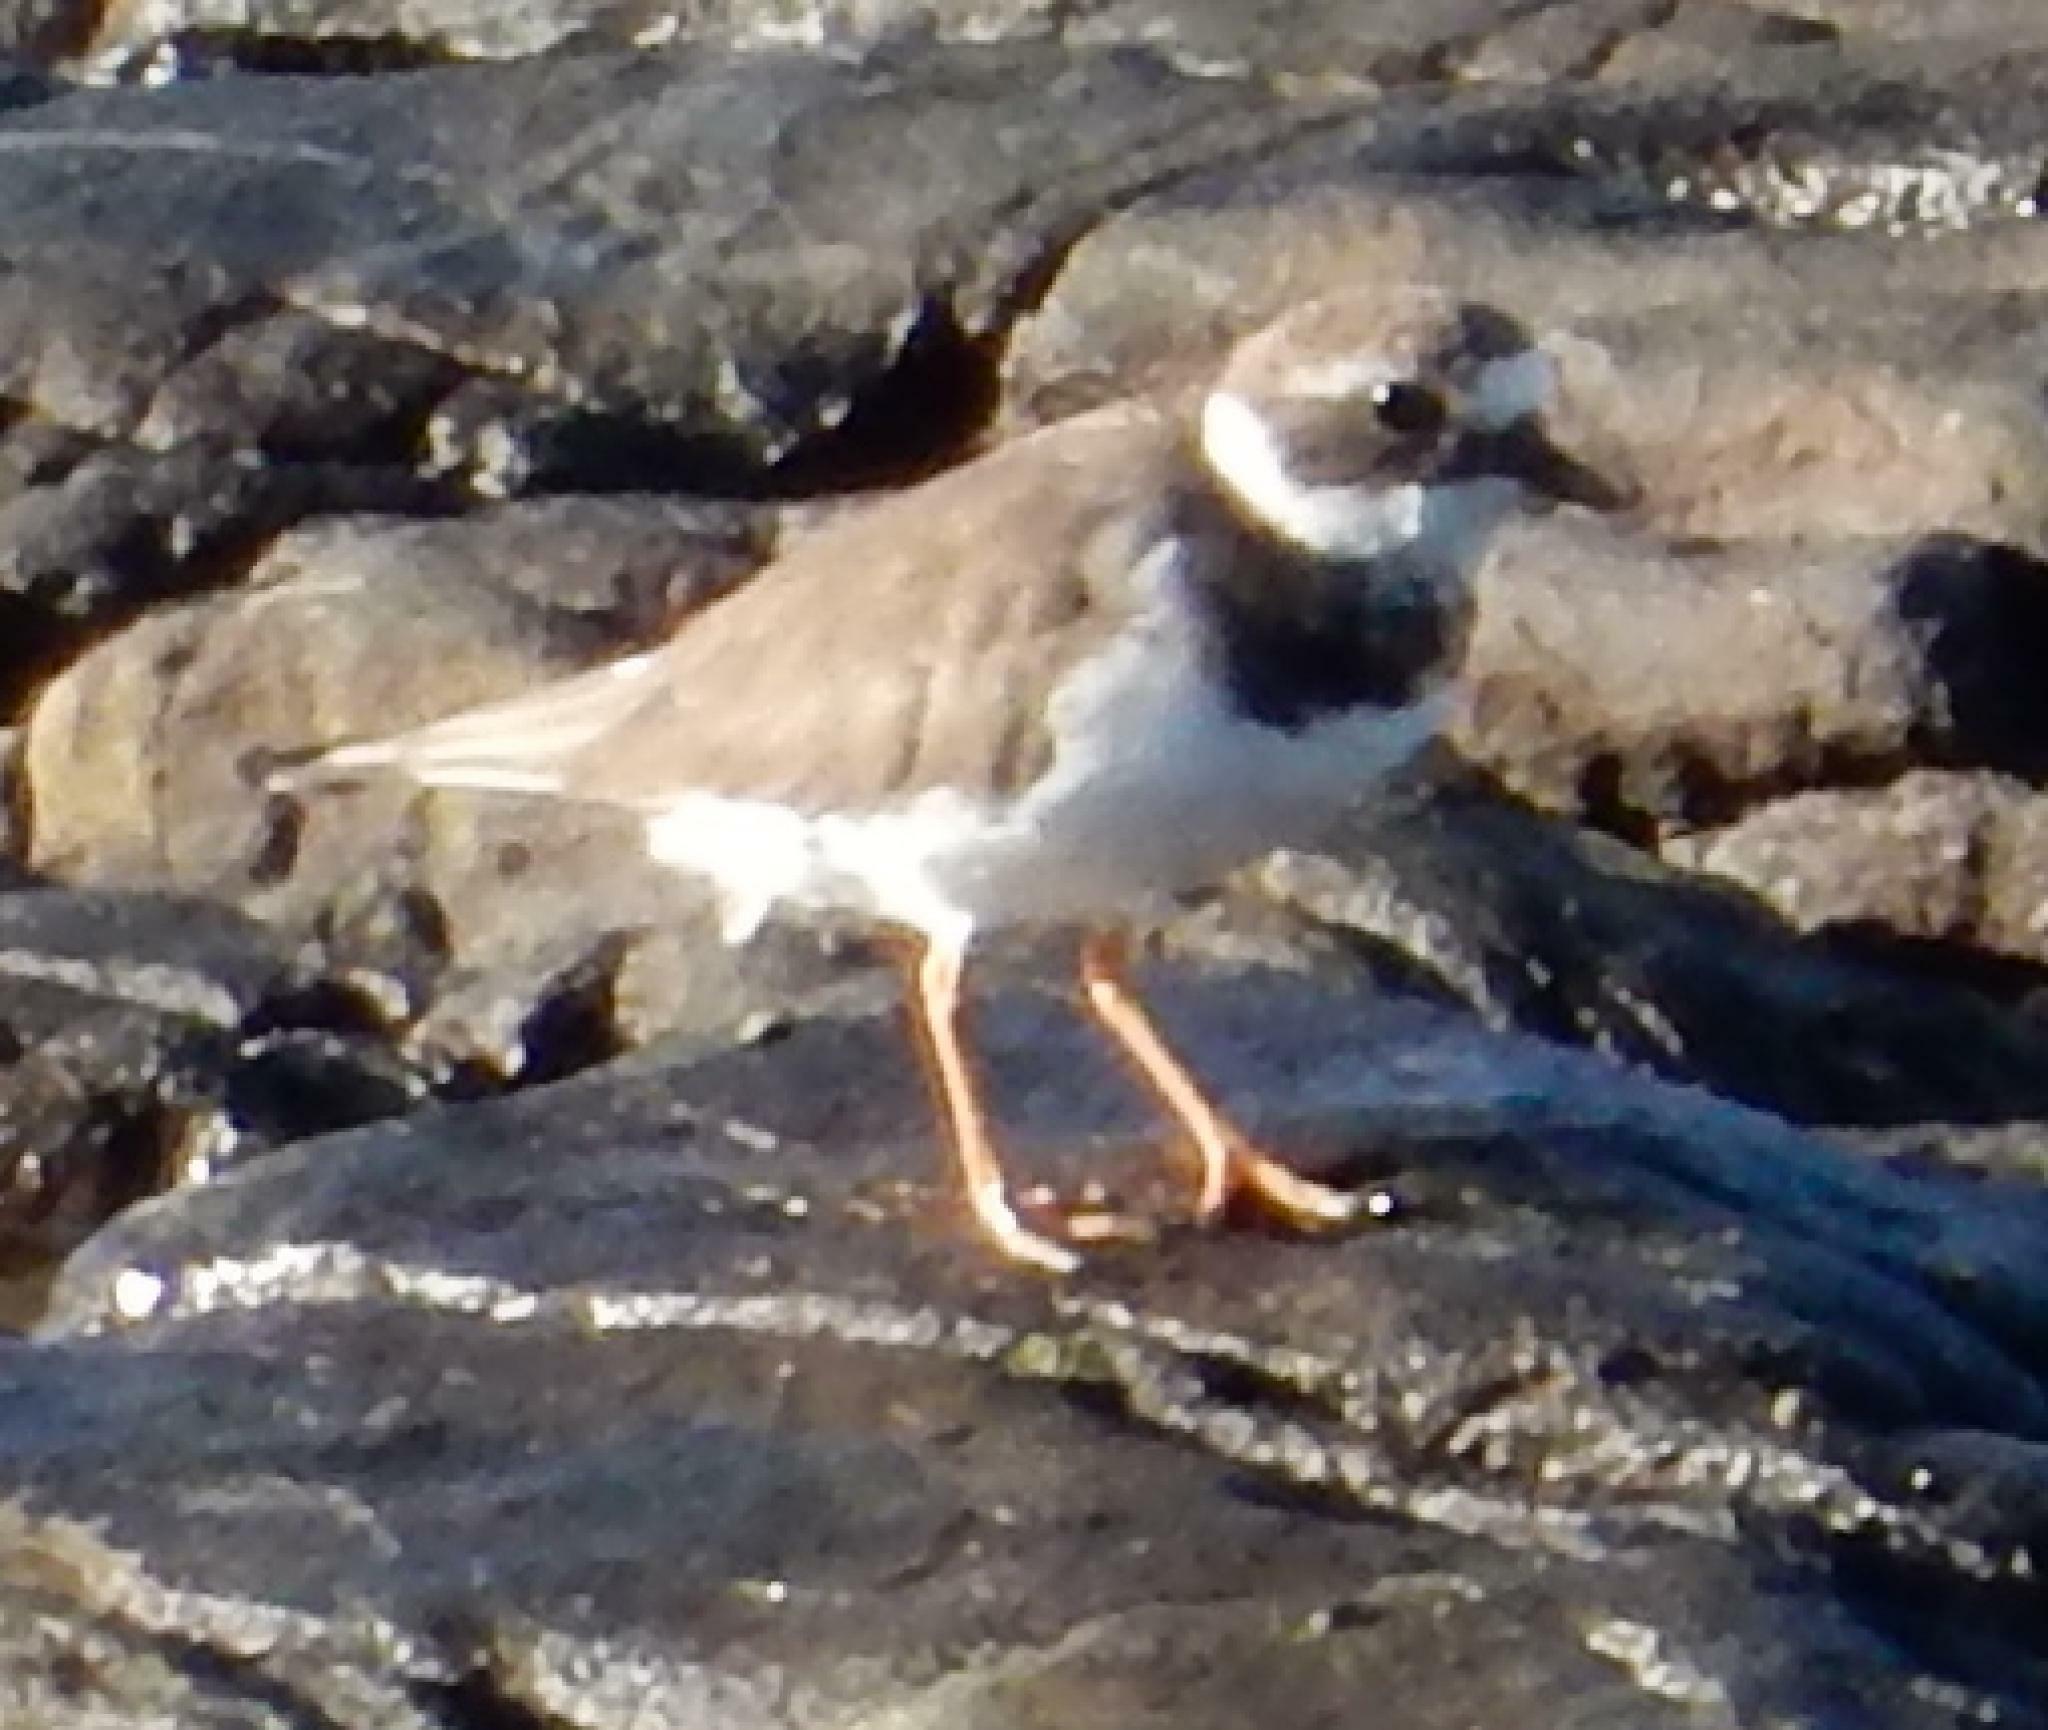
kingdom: Animalia
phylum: Chordata
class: Aves
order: Charadriiformes
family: Charadriidae
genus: Charadrius
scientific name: Charadrius hiaticula
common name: Common ringed plover
